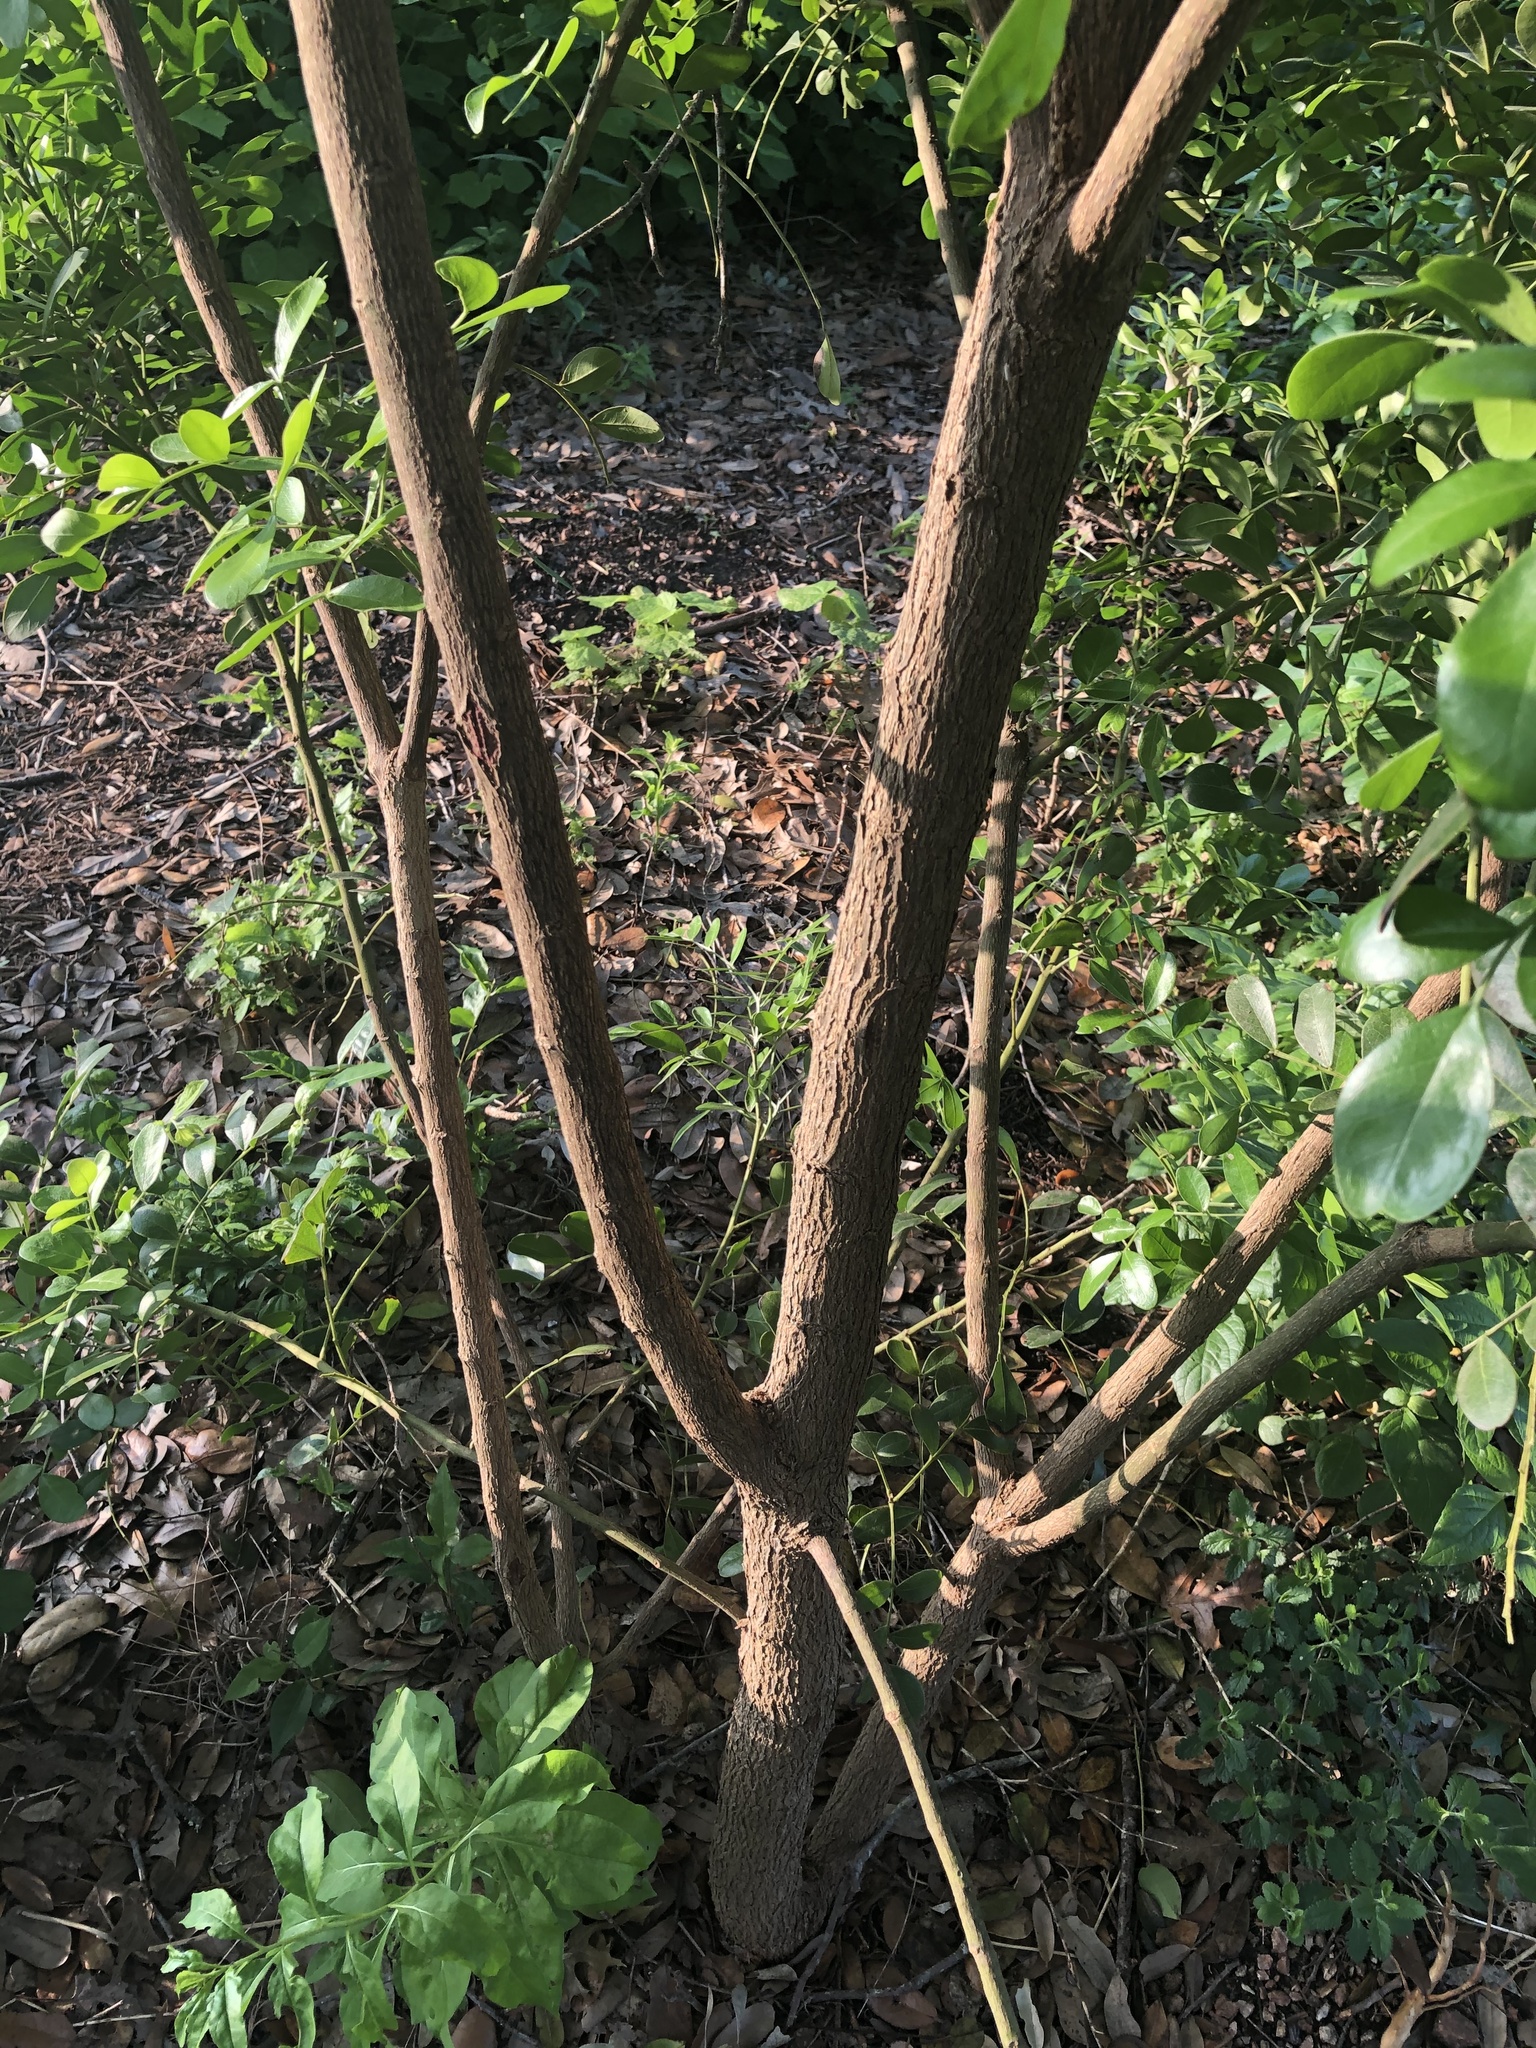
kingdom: Plantae
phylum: Tracheophyta
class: Magnoliopsida
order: Fabales
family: Fabaceae
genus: Dermatophyllum
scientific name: Dermatophyllum secundiflorum
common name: Texas-mountain-laurel
